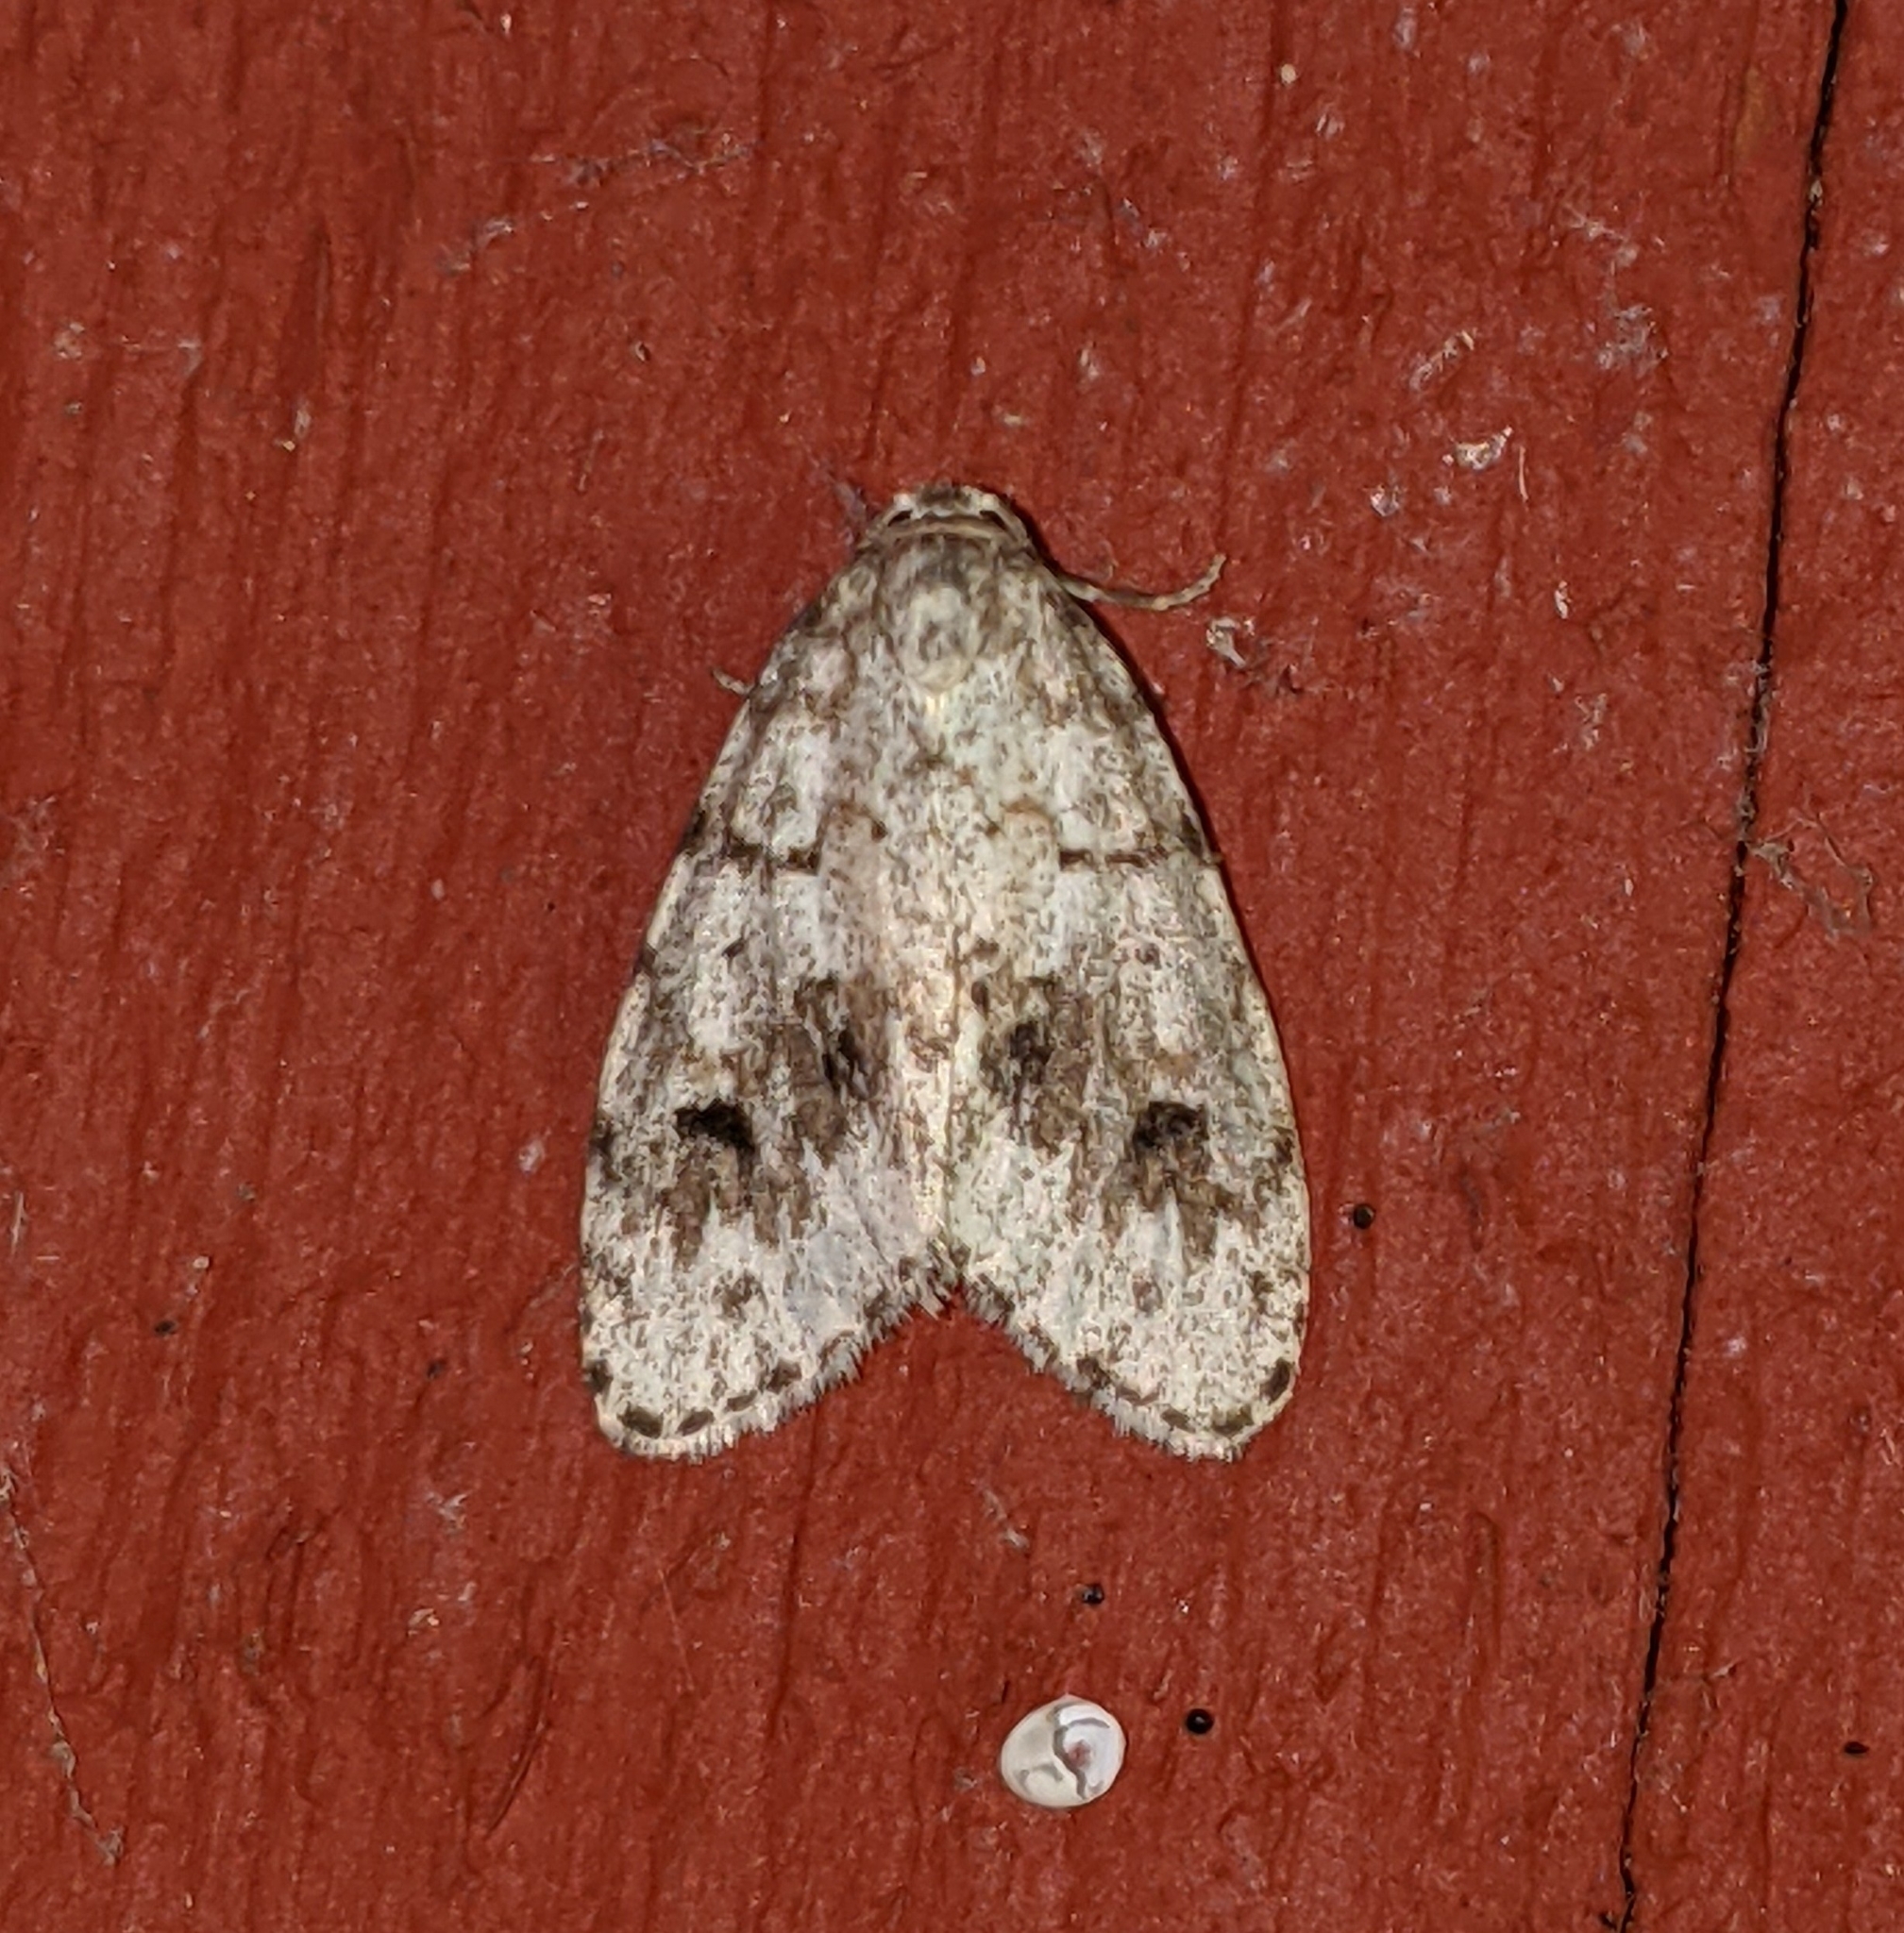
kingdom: Animalia
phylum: Arthropoda
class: Insecta
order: Lepidoptera
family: Erebidae
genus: Clemensia
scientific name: Clemensia umbrata
